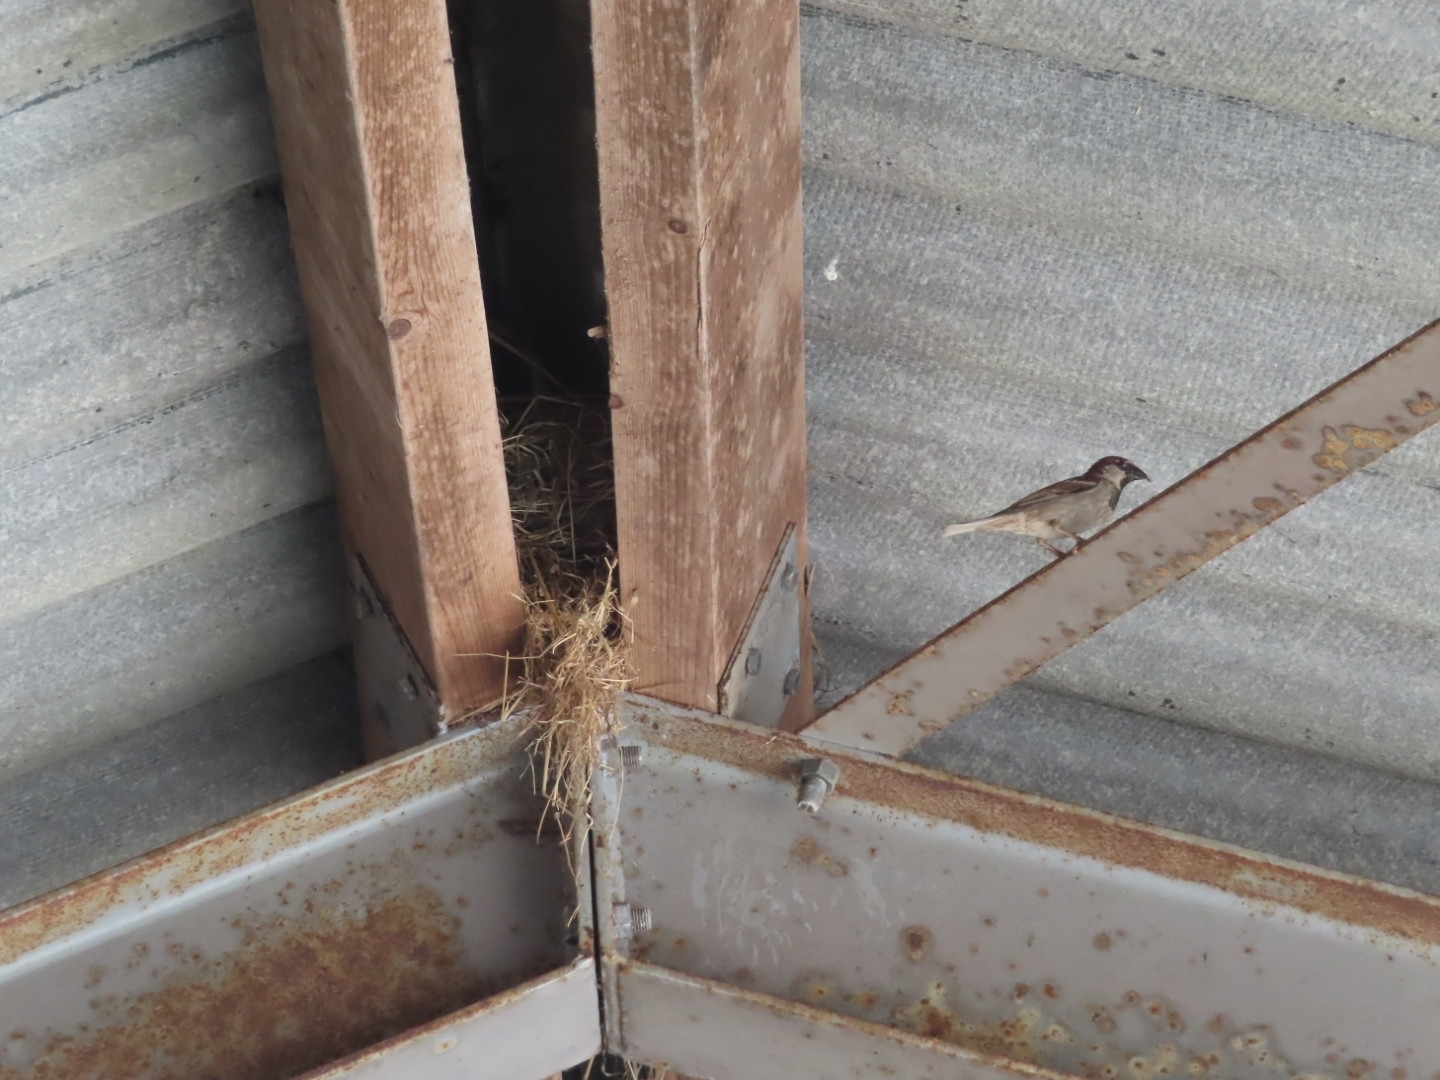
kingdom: Animalia
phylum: Chordata
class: Aves
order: Passeriformes
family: Passeridae
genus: Passer
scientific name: Passer domesticus
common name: House sparrow
